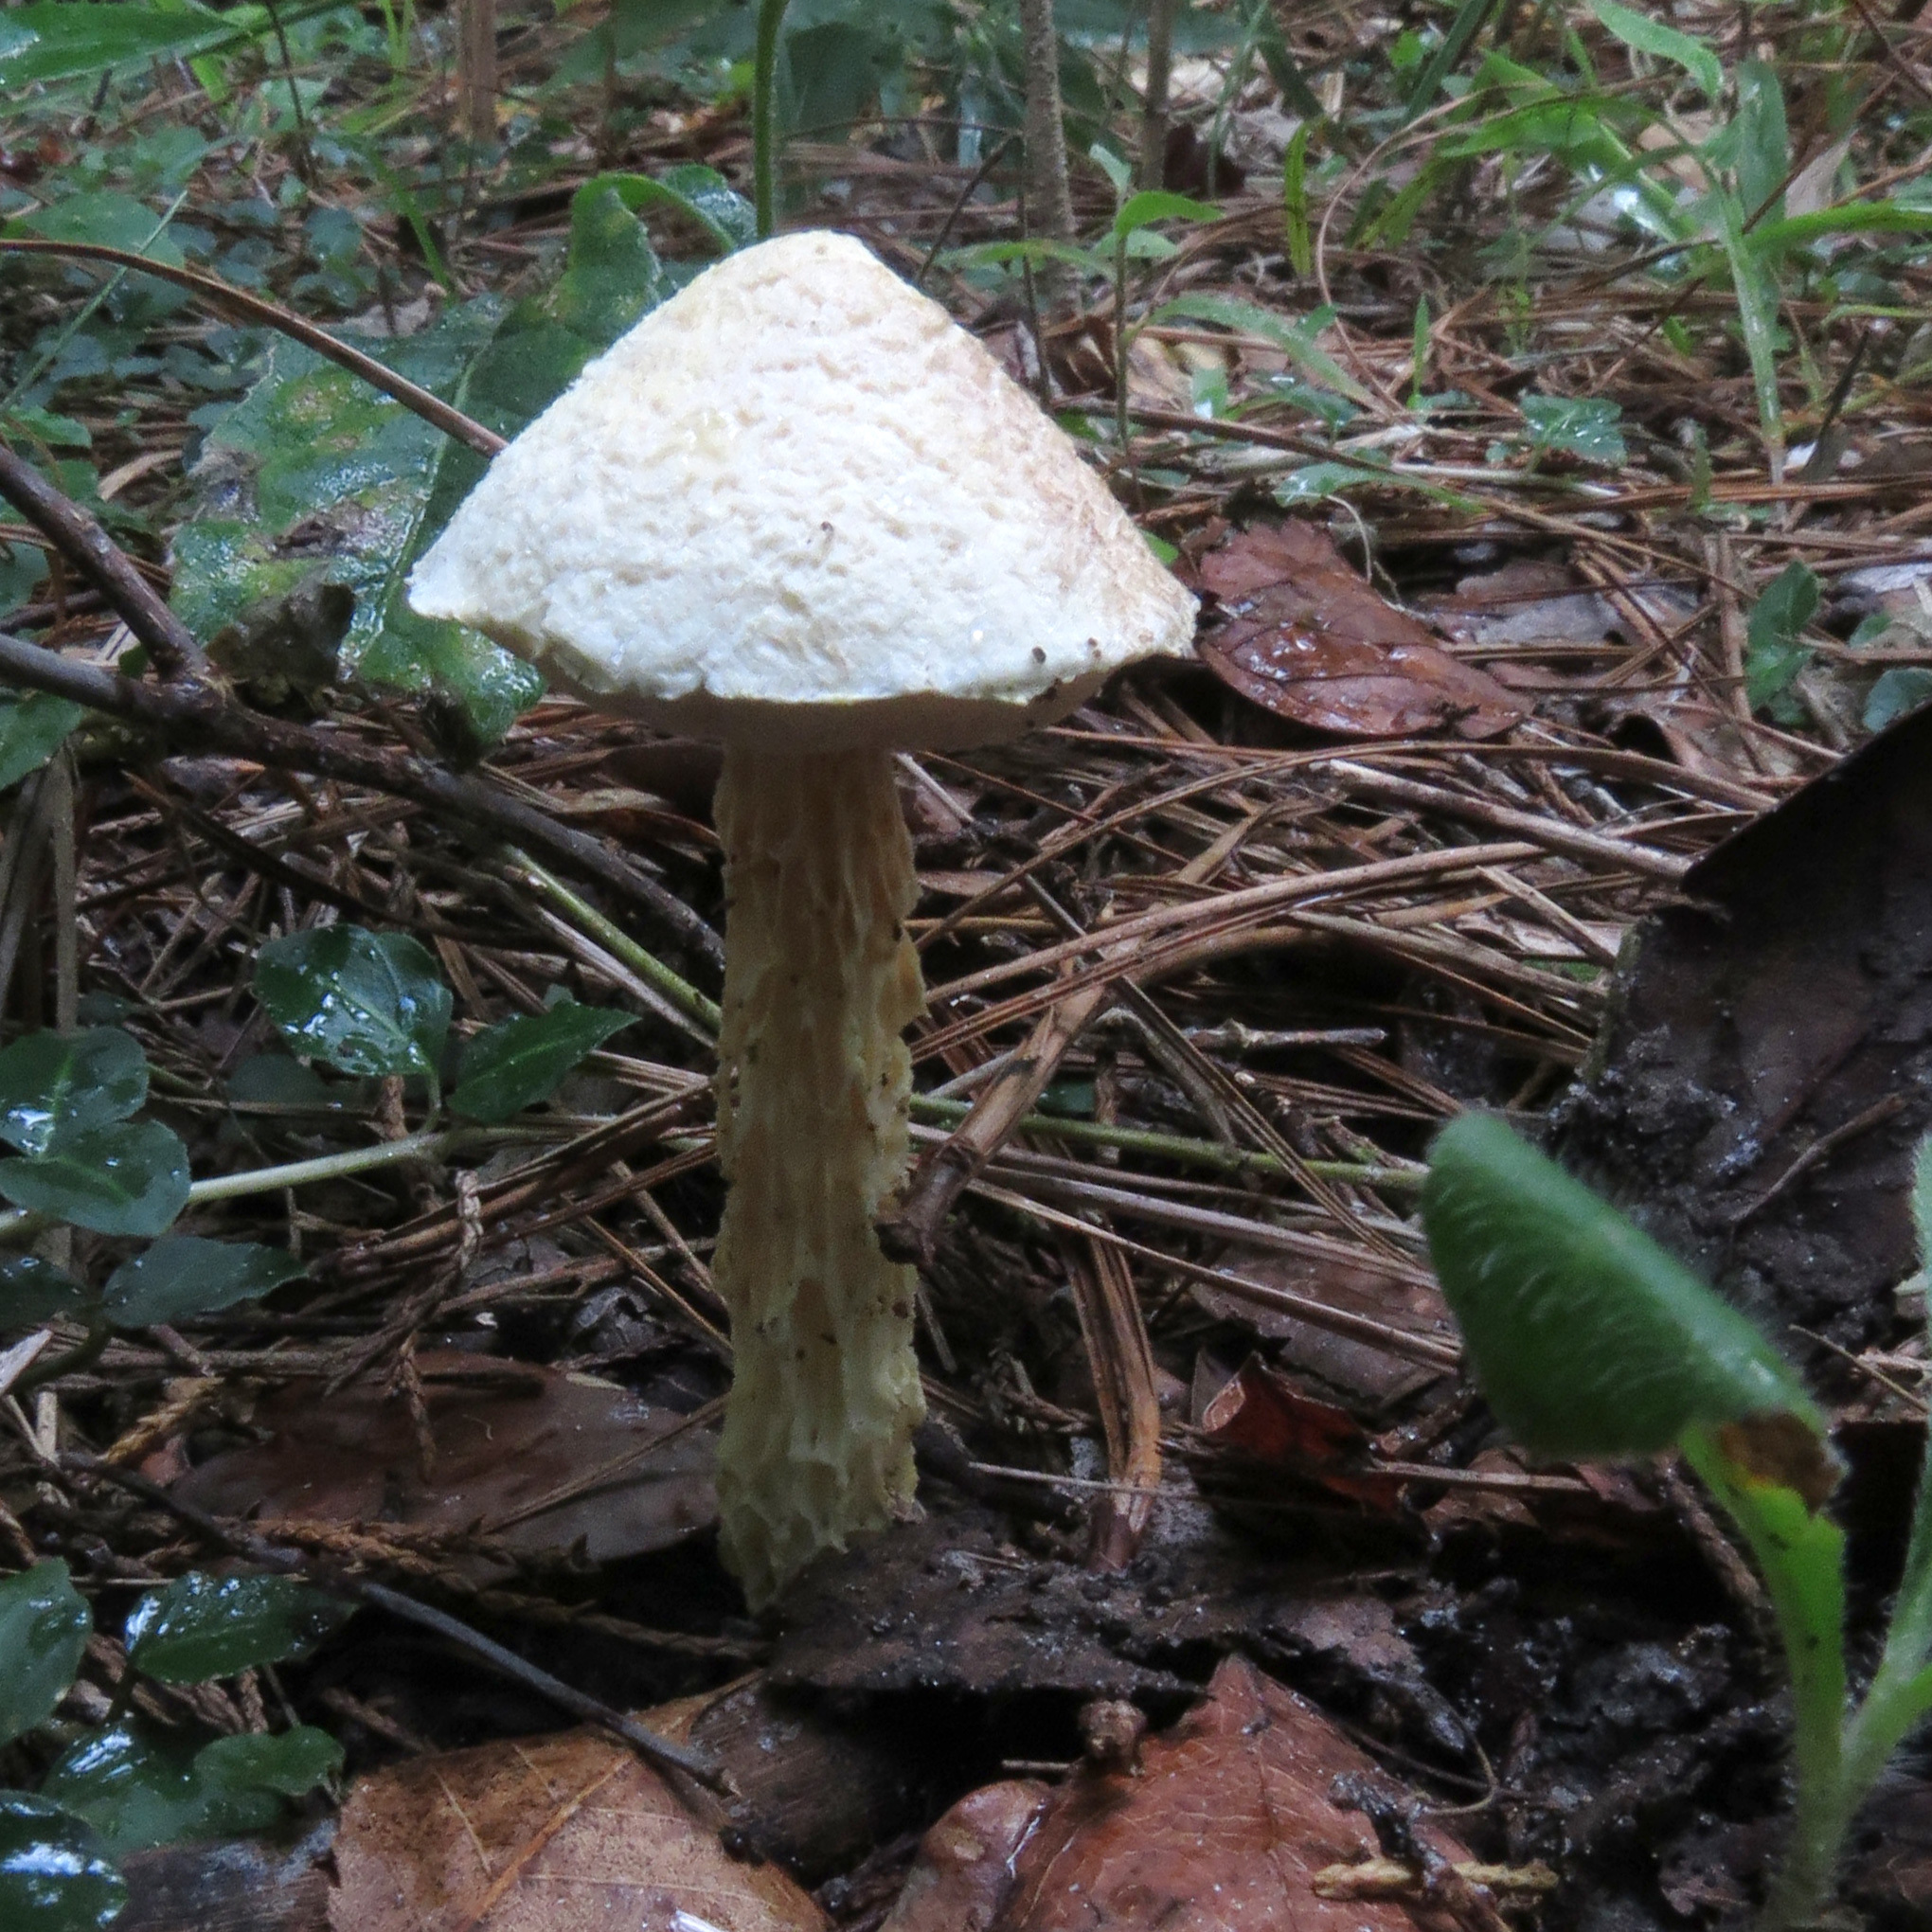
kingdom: Fungi
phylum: Basidiomycota
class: Agaricomycetes
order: Boletales
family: Boletaceae
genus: Austroboletus
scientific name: Austroboletus subflavidus
